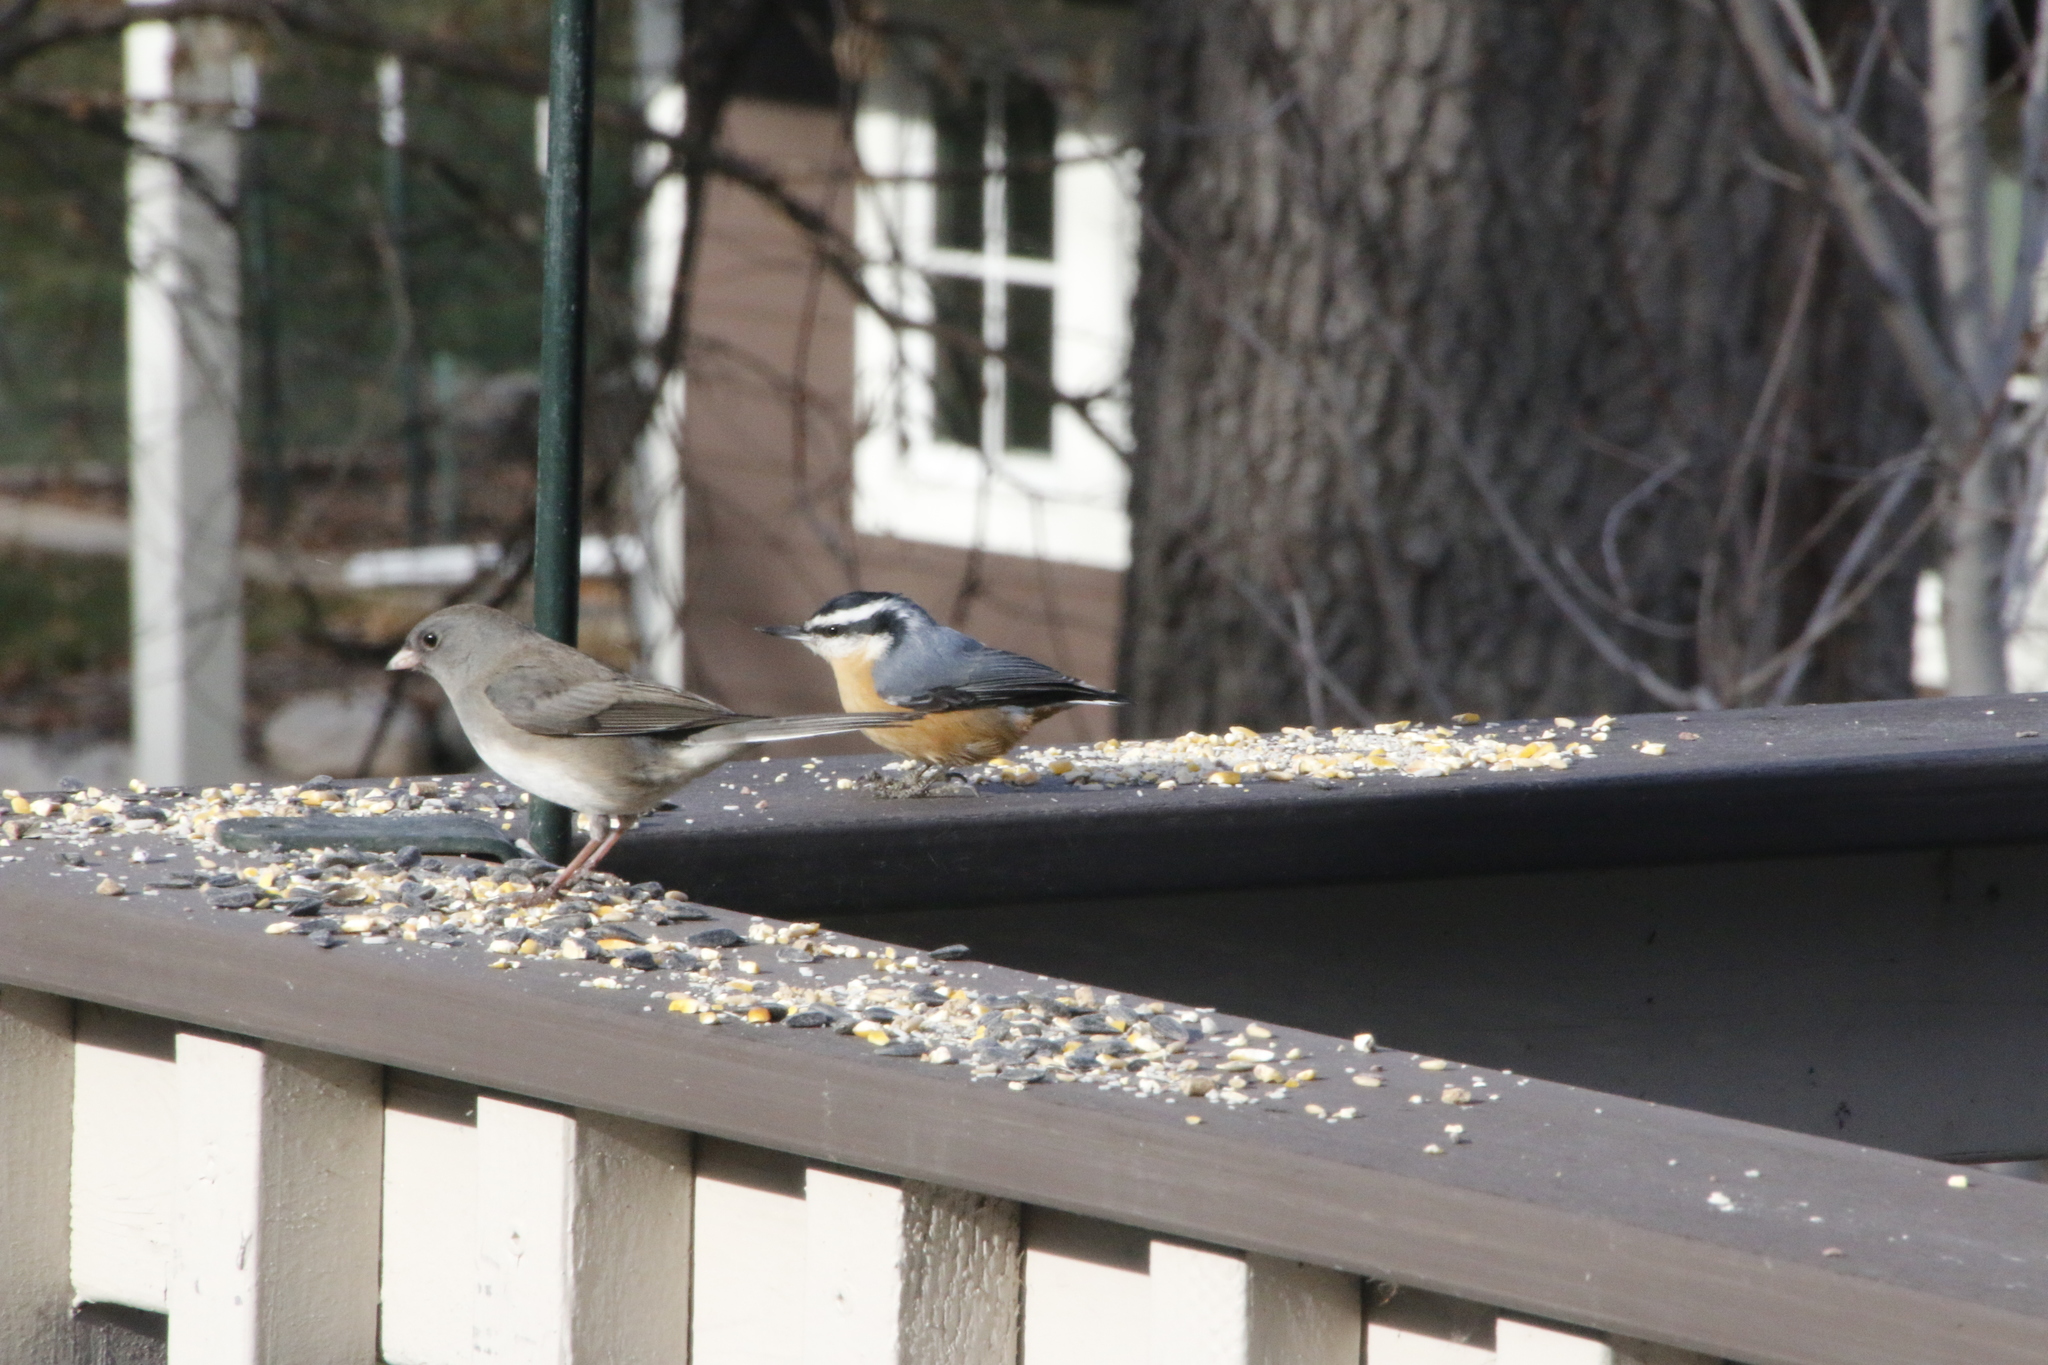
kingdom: Animalia
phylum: Chordata
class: Aves
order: Passeriformes
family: Sittidae
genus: Sitta
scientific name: Sitta canadensis
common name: Red-breasted nuthatch
